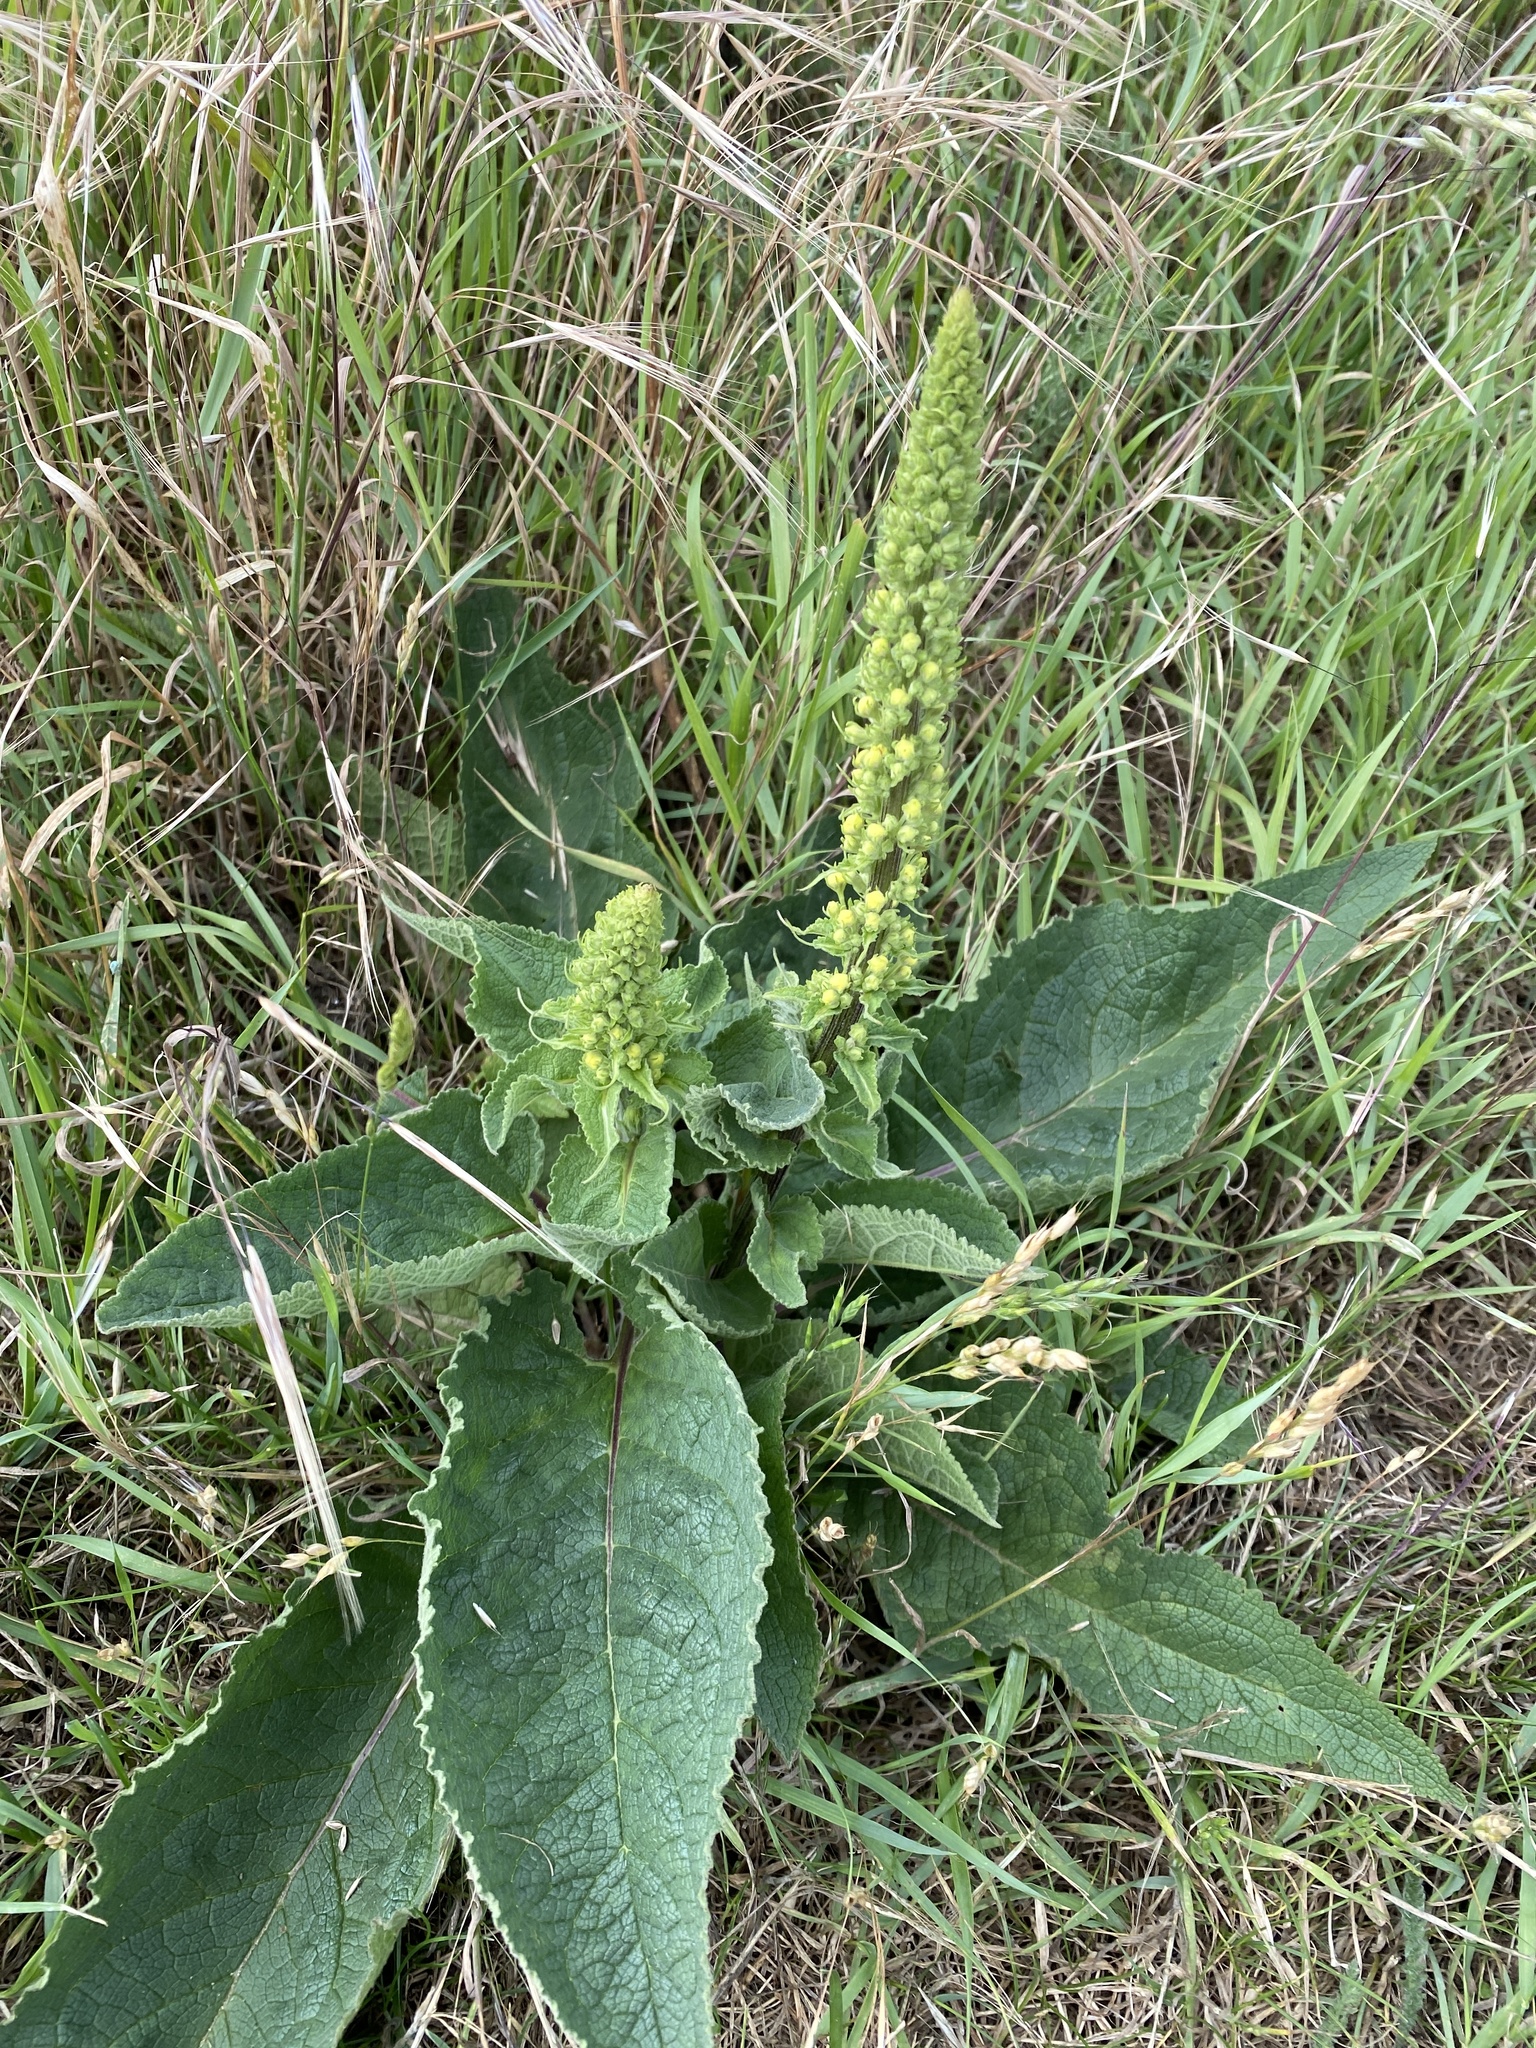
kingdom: Plantae
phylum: Tracheophyta
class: Magnoliopsida
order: Lamiales
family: Scrophulariaceae
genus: Verbascum
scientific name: Verbascum nigrum
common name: Dark mullein
